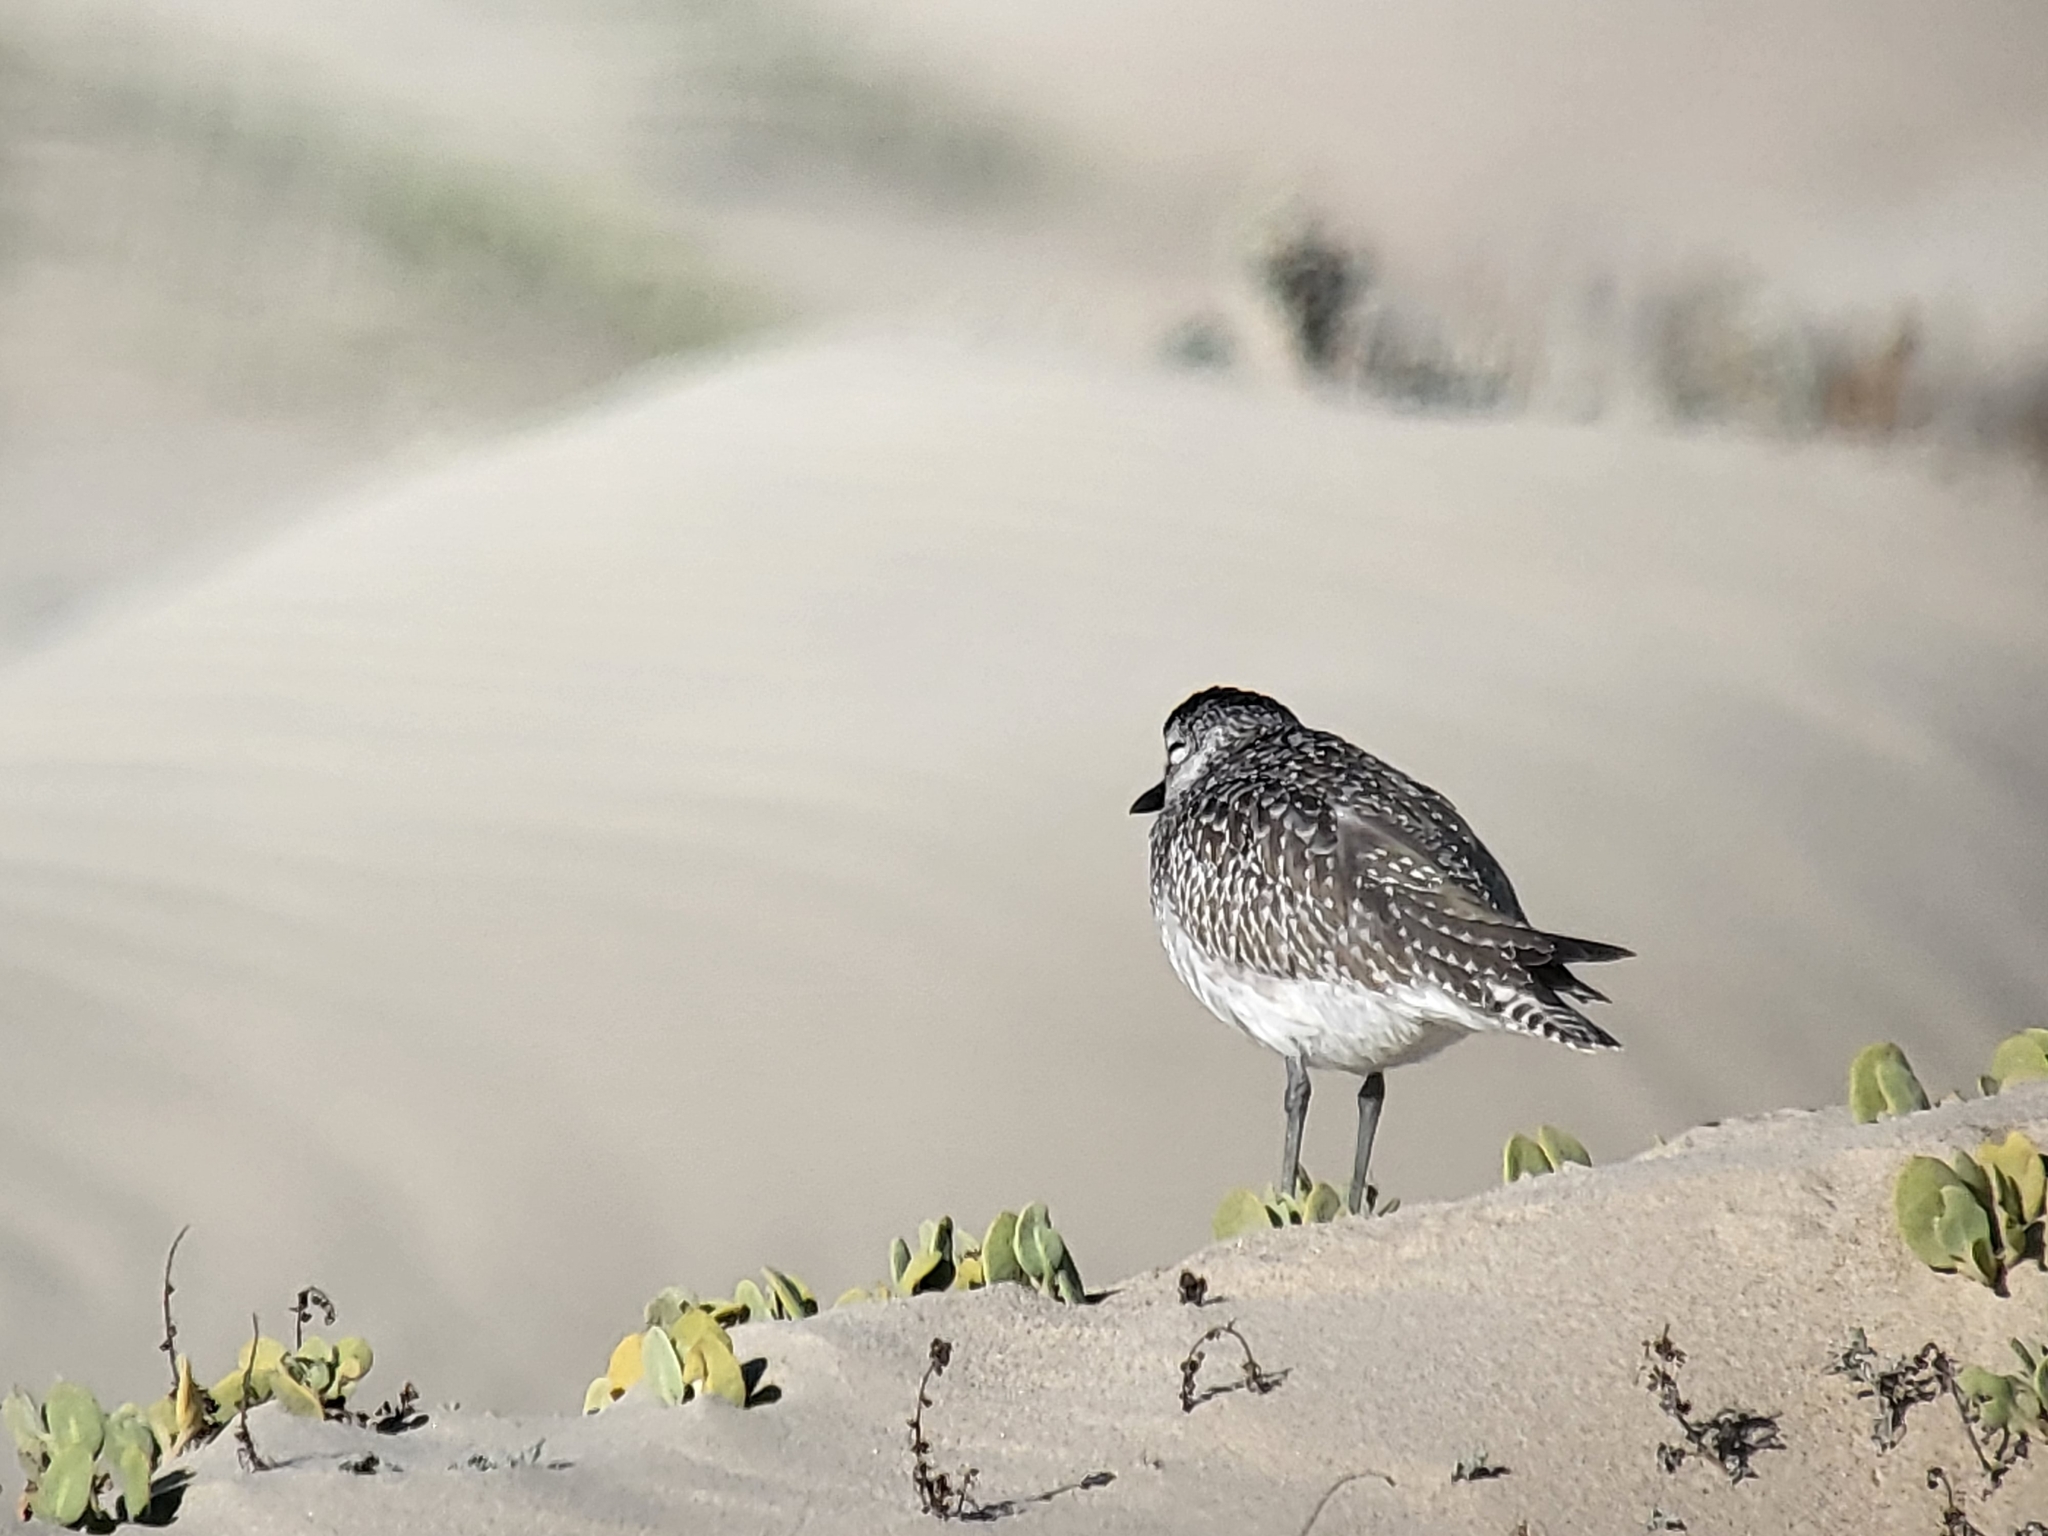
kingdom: Animalia
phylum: Chordata
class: Aves
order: Charadriiformes
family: Charadriidae
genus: Pluvialis
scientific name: Pluvialis squatarola
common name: Grey plover
